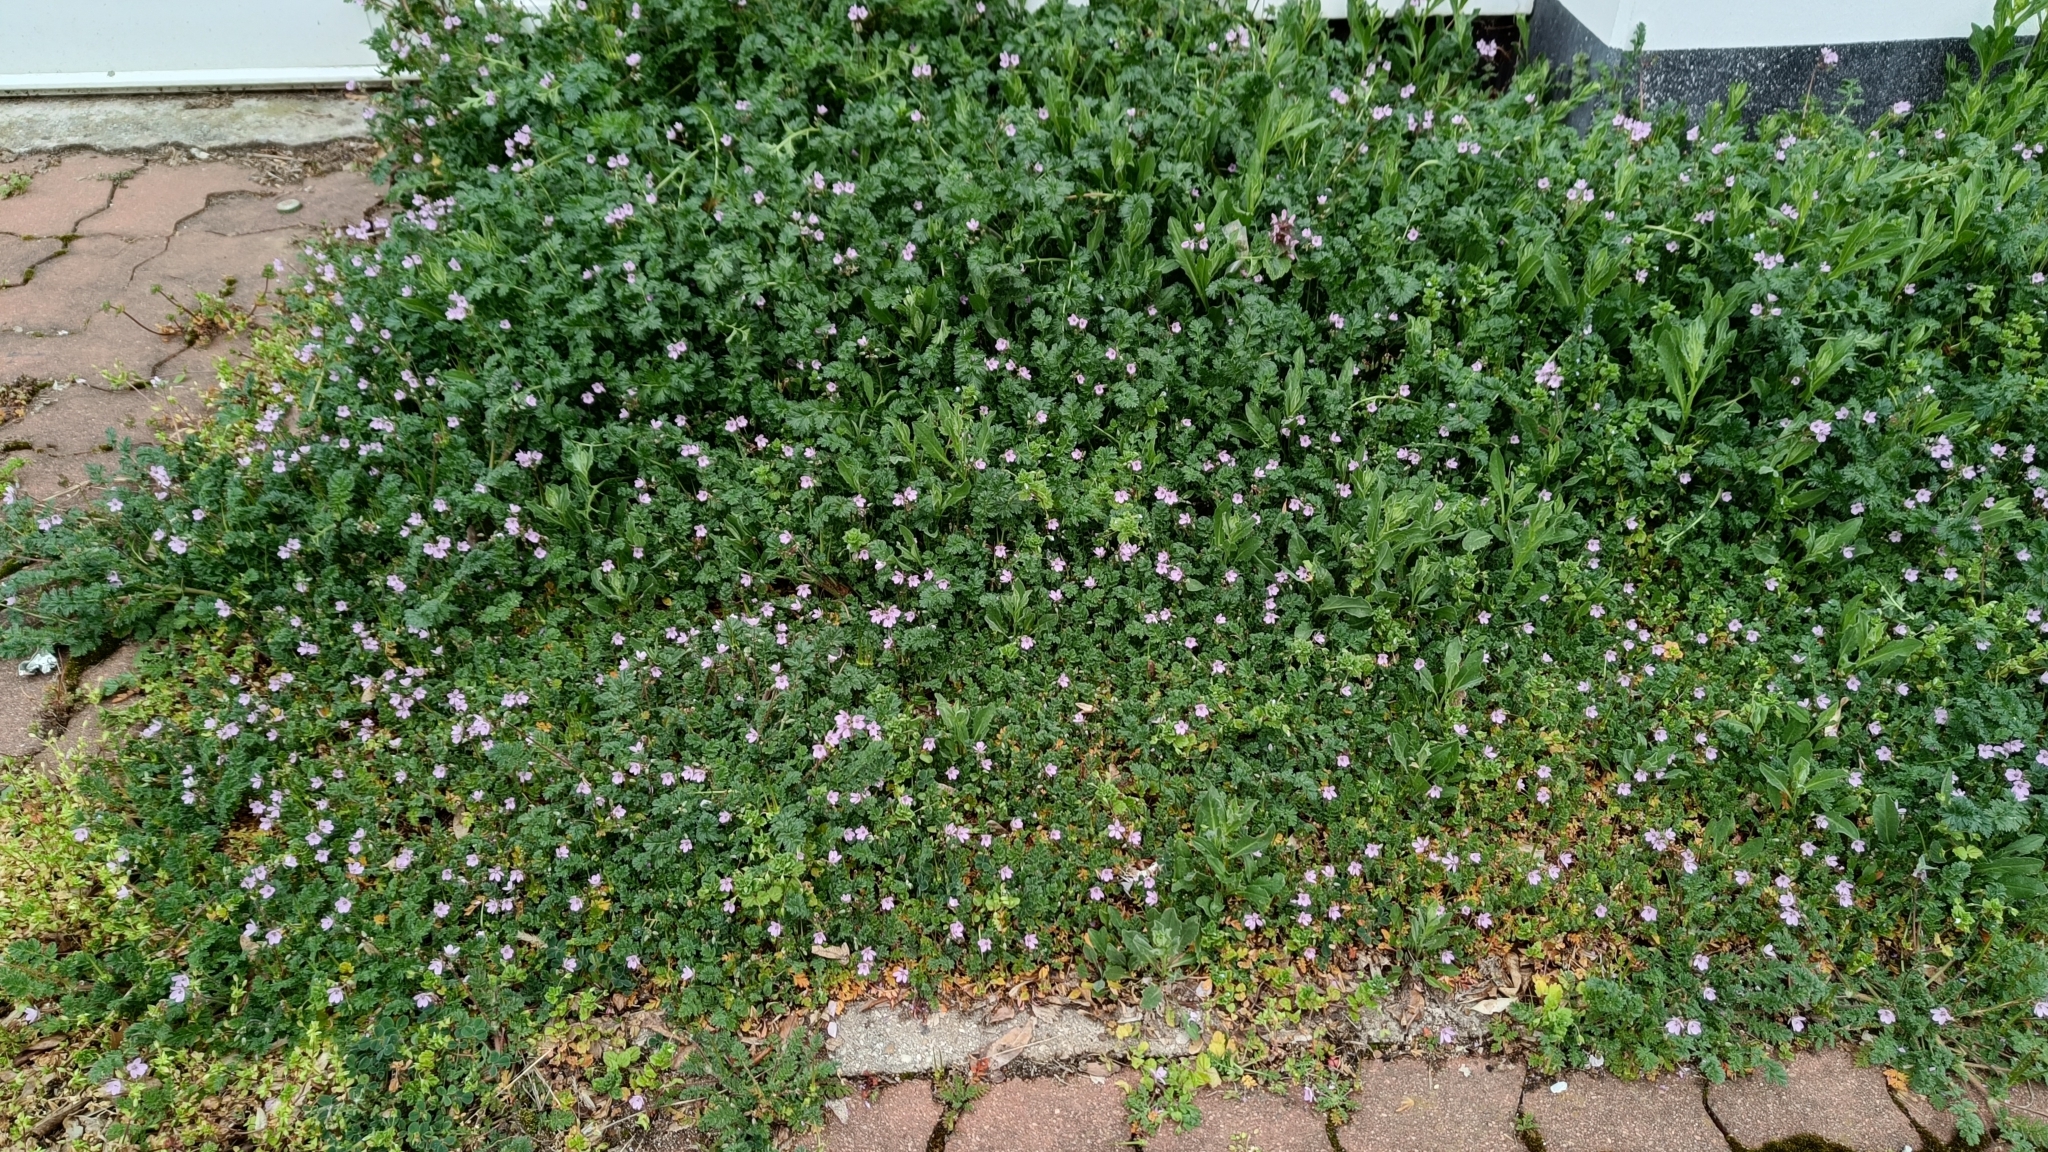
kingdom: Plantae
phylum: Tracheophyta
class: Magnoliopsida
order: Geraniales
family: Geraniaceae
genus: Erodium
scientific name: Erodium cicutarium
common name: Common stork's-bill
